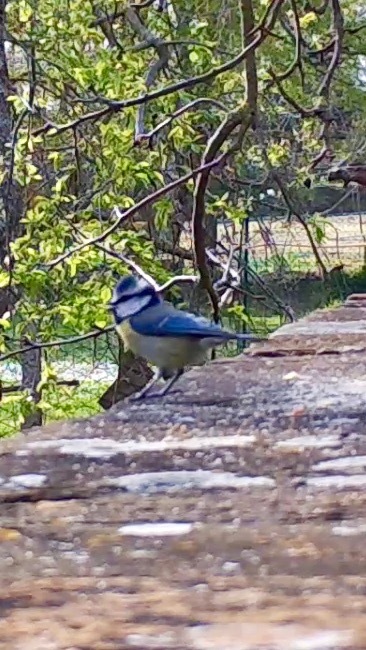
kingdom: Animalia
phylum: Chordata
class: Aves
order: Passeriformes
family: Paridae
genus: Cyanistes
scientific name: Cyanistes caeruleus
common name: Eurasian blue tit
